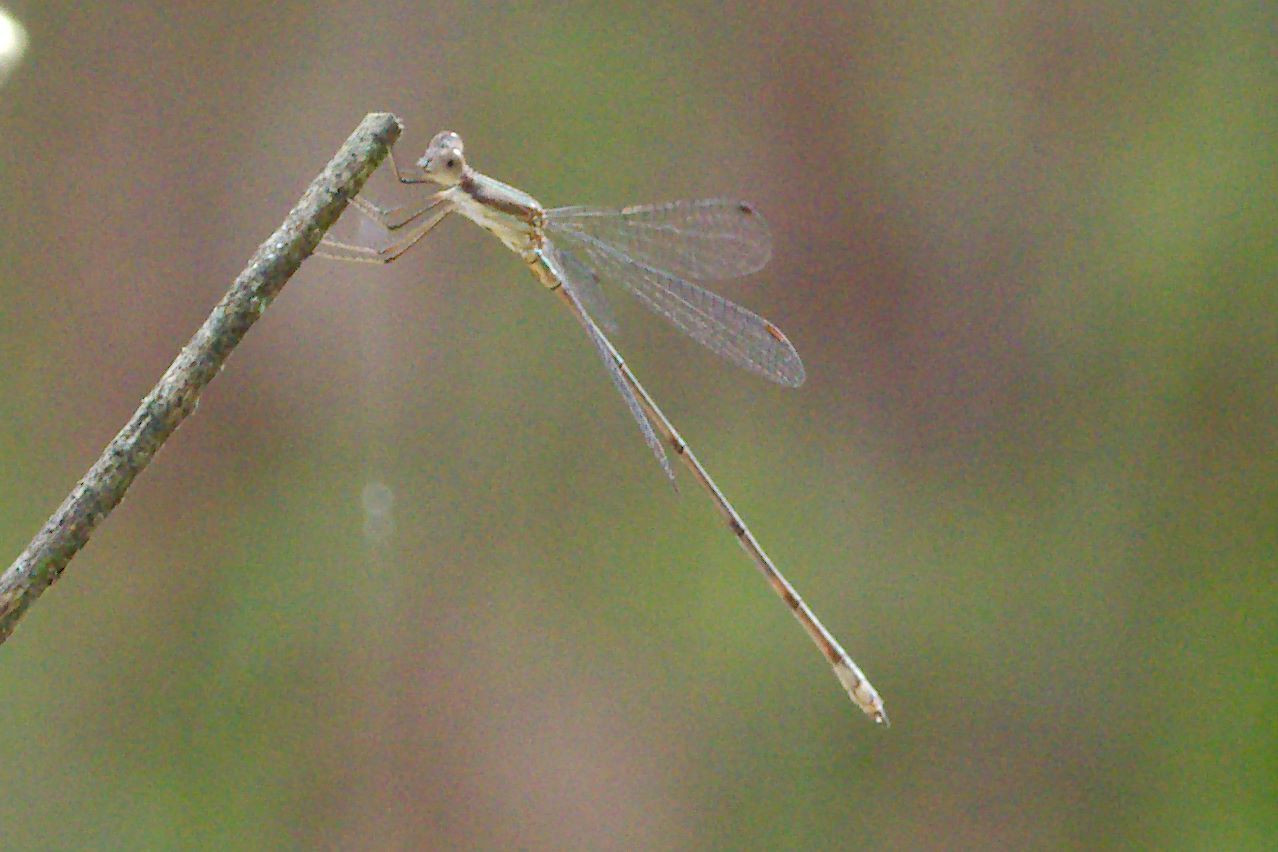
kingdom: Animalia
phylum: Arthropoda
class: Insecta
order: Odonata
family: Lestidae
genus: Lestes
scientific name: Lestes tenuatus
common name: Blue-striped spreadwing
